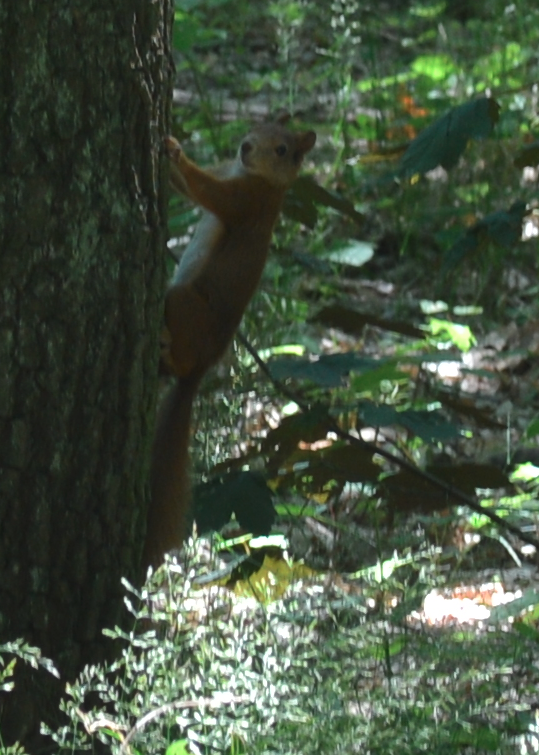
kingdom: Animalia
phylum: Chordata
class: Mammalia
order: Rodentia
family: Sciuridae
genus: Sciurus
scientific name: Sciurus vulgaris
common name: Eurasian red squirrel
